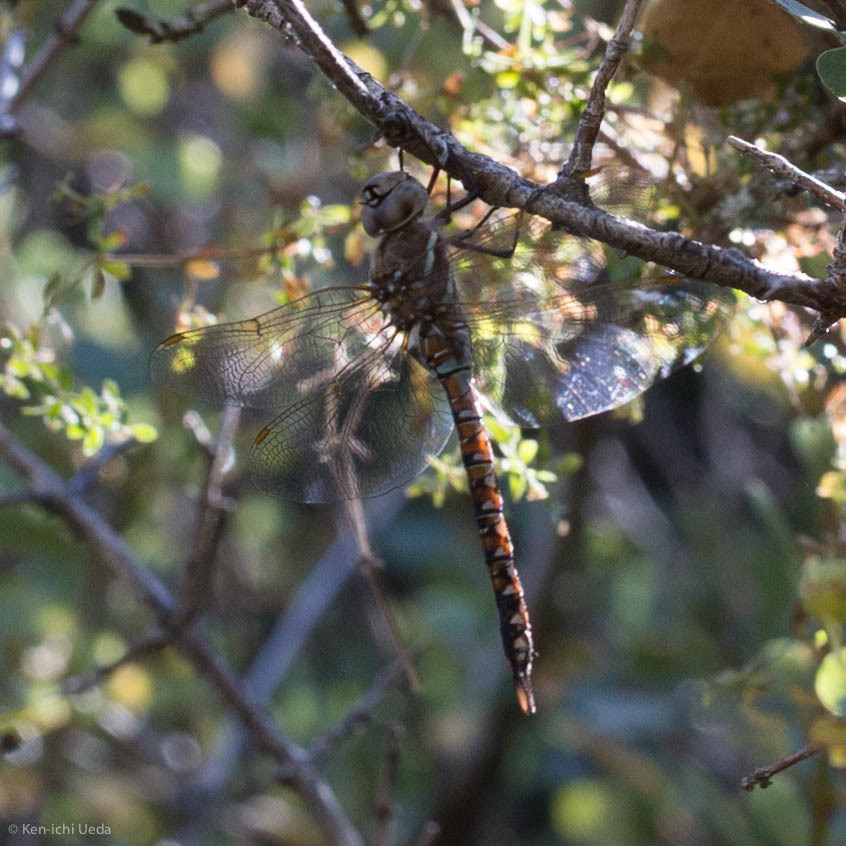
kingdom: Animalia
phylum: Arthropoda
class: Insecta
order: Odonata
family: Aeshnidae
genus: Rhionaeschna
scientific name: Rhionaeschna multicolor
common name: Blue-eyed darner
